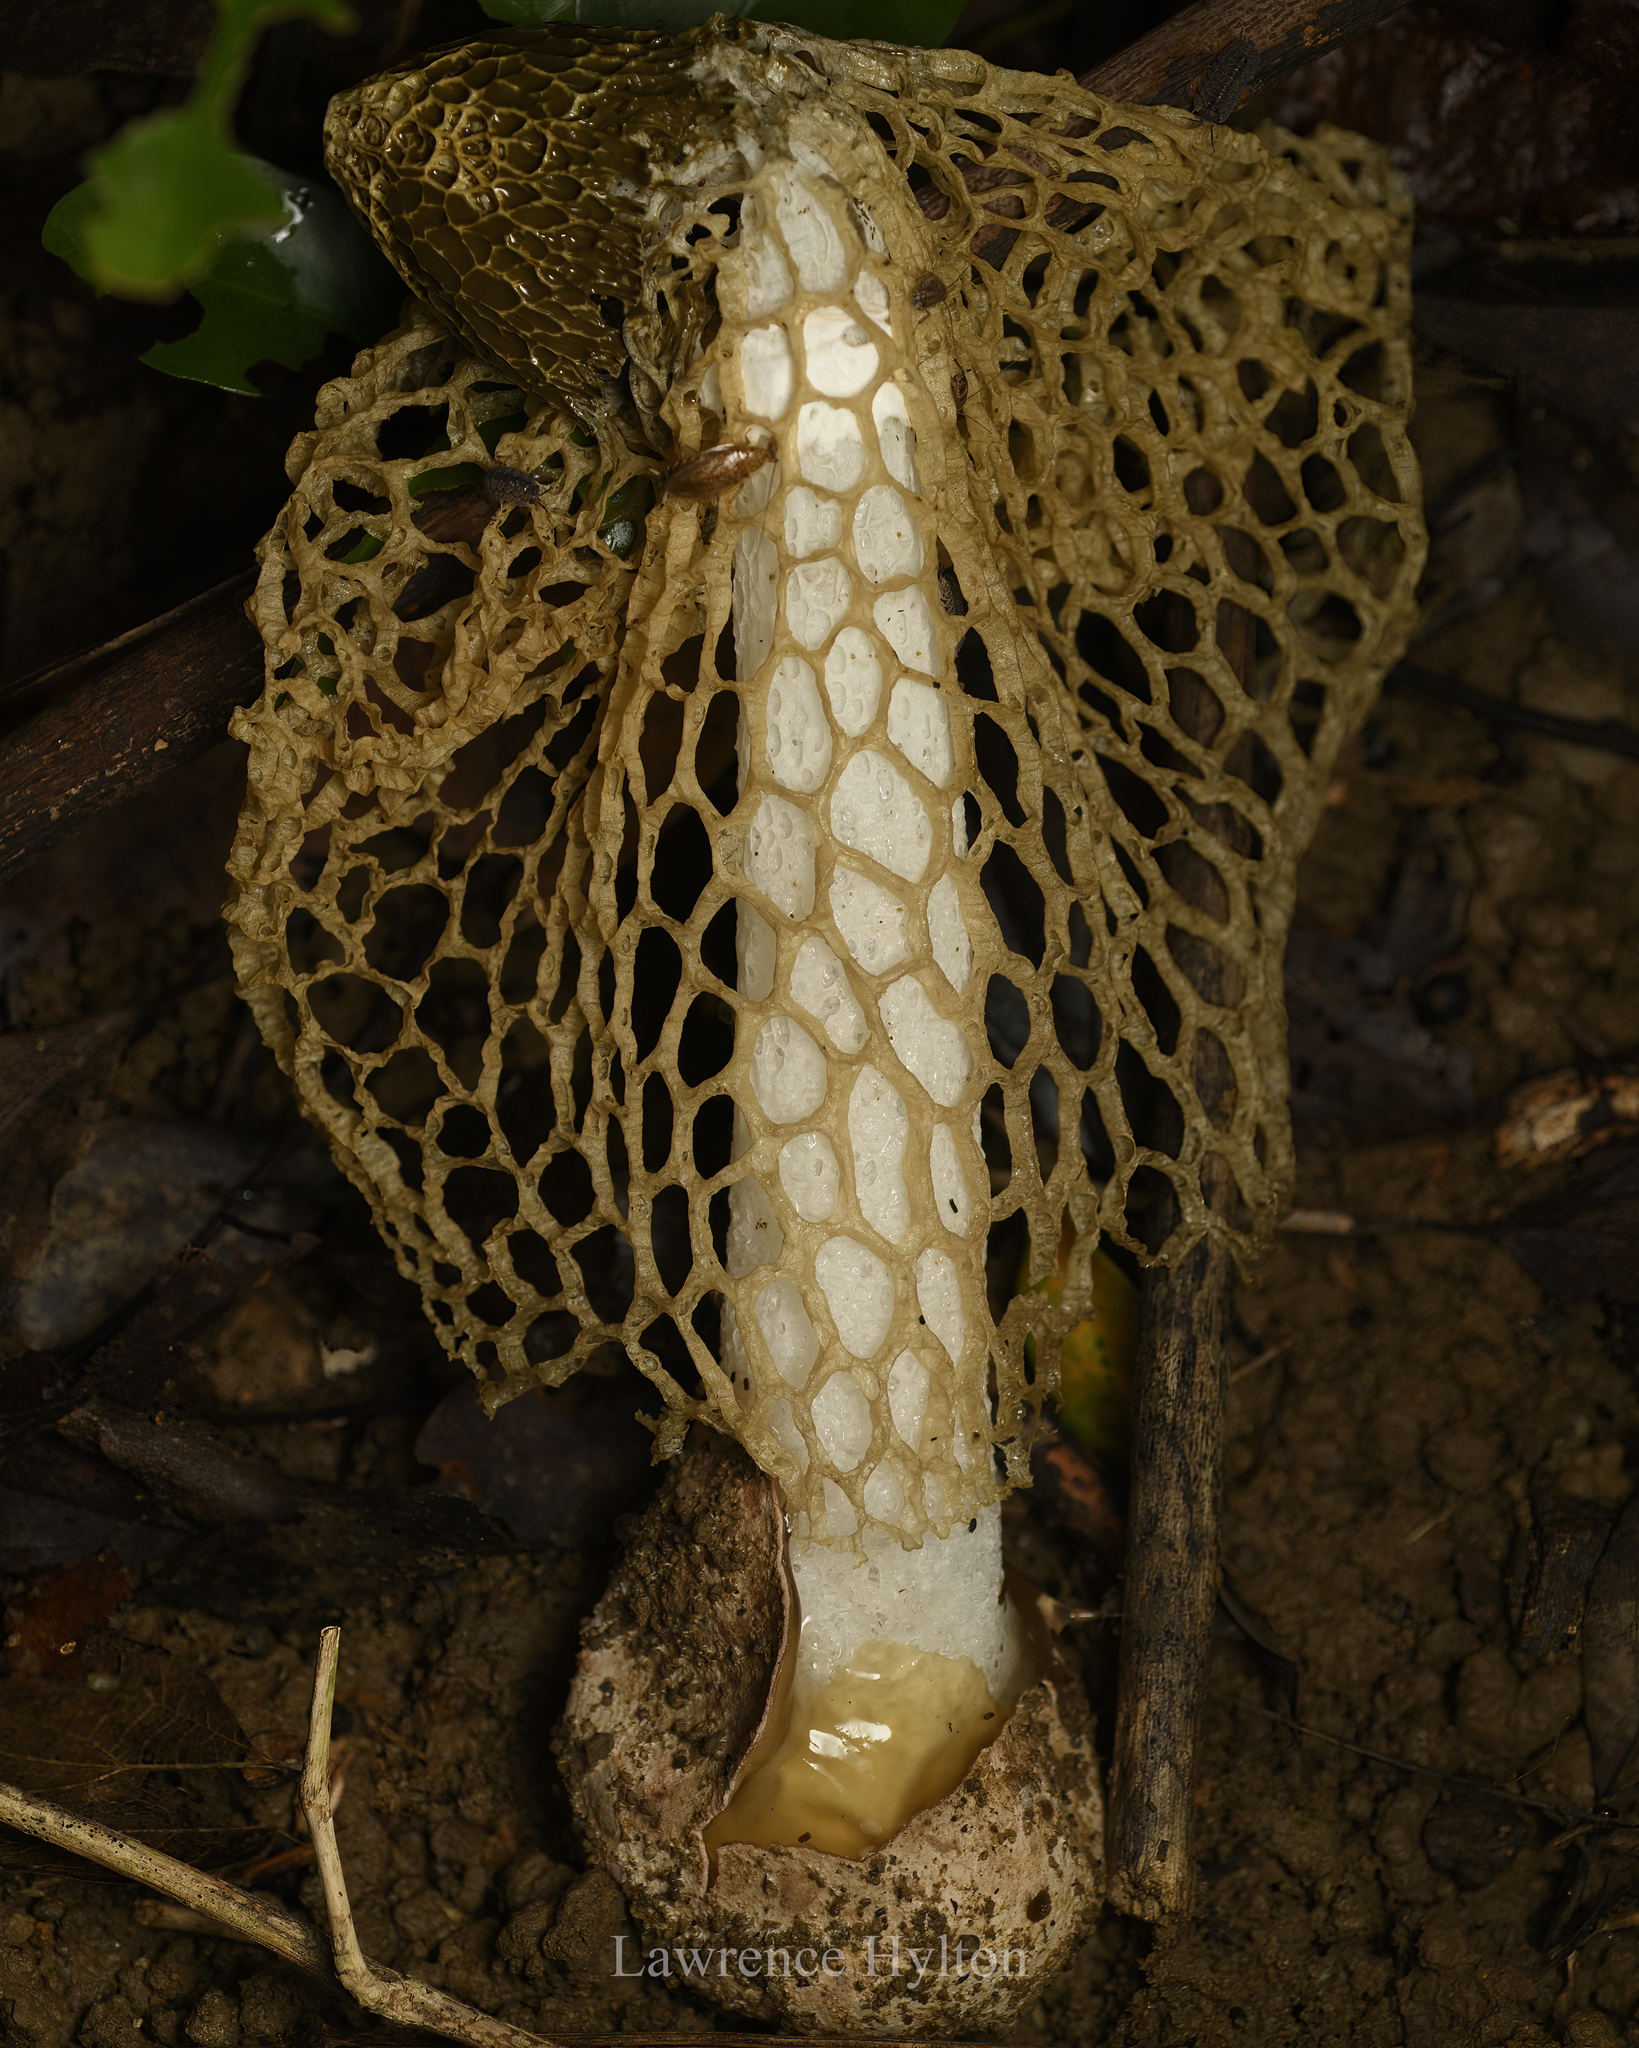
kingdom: Fungi
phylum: Basidiomycota
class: Agaricomycetes
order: Phallales
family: Phallaceae
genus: Phallus
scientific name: Phallus lutescens
